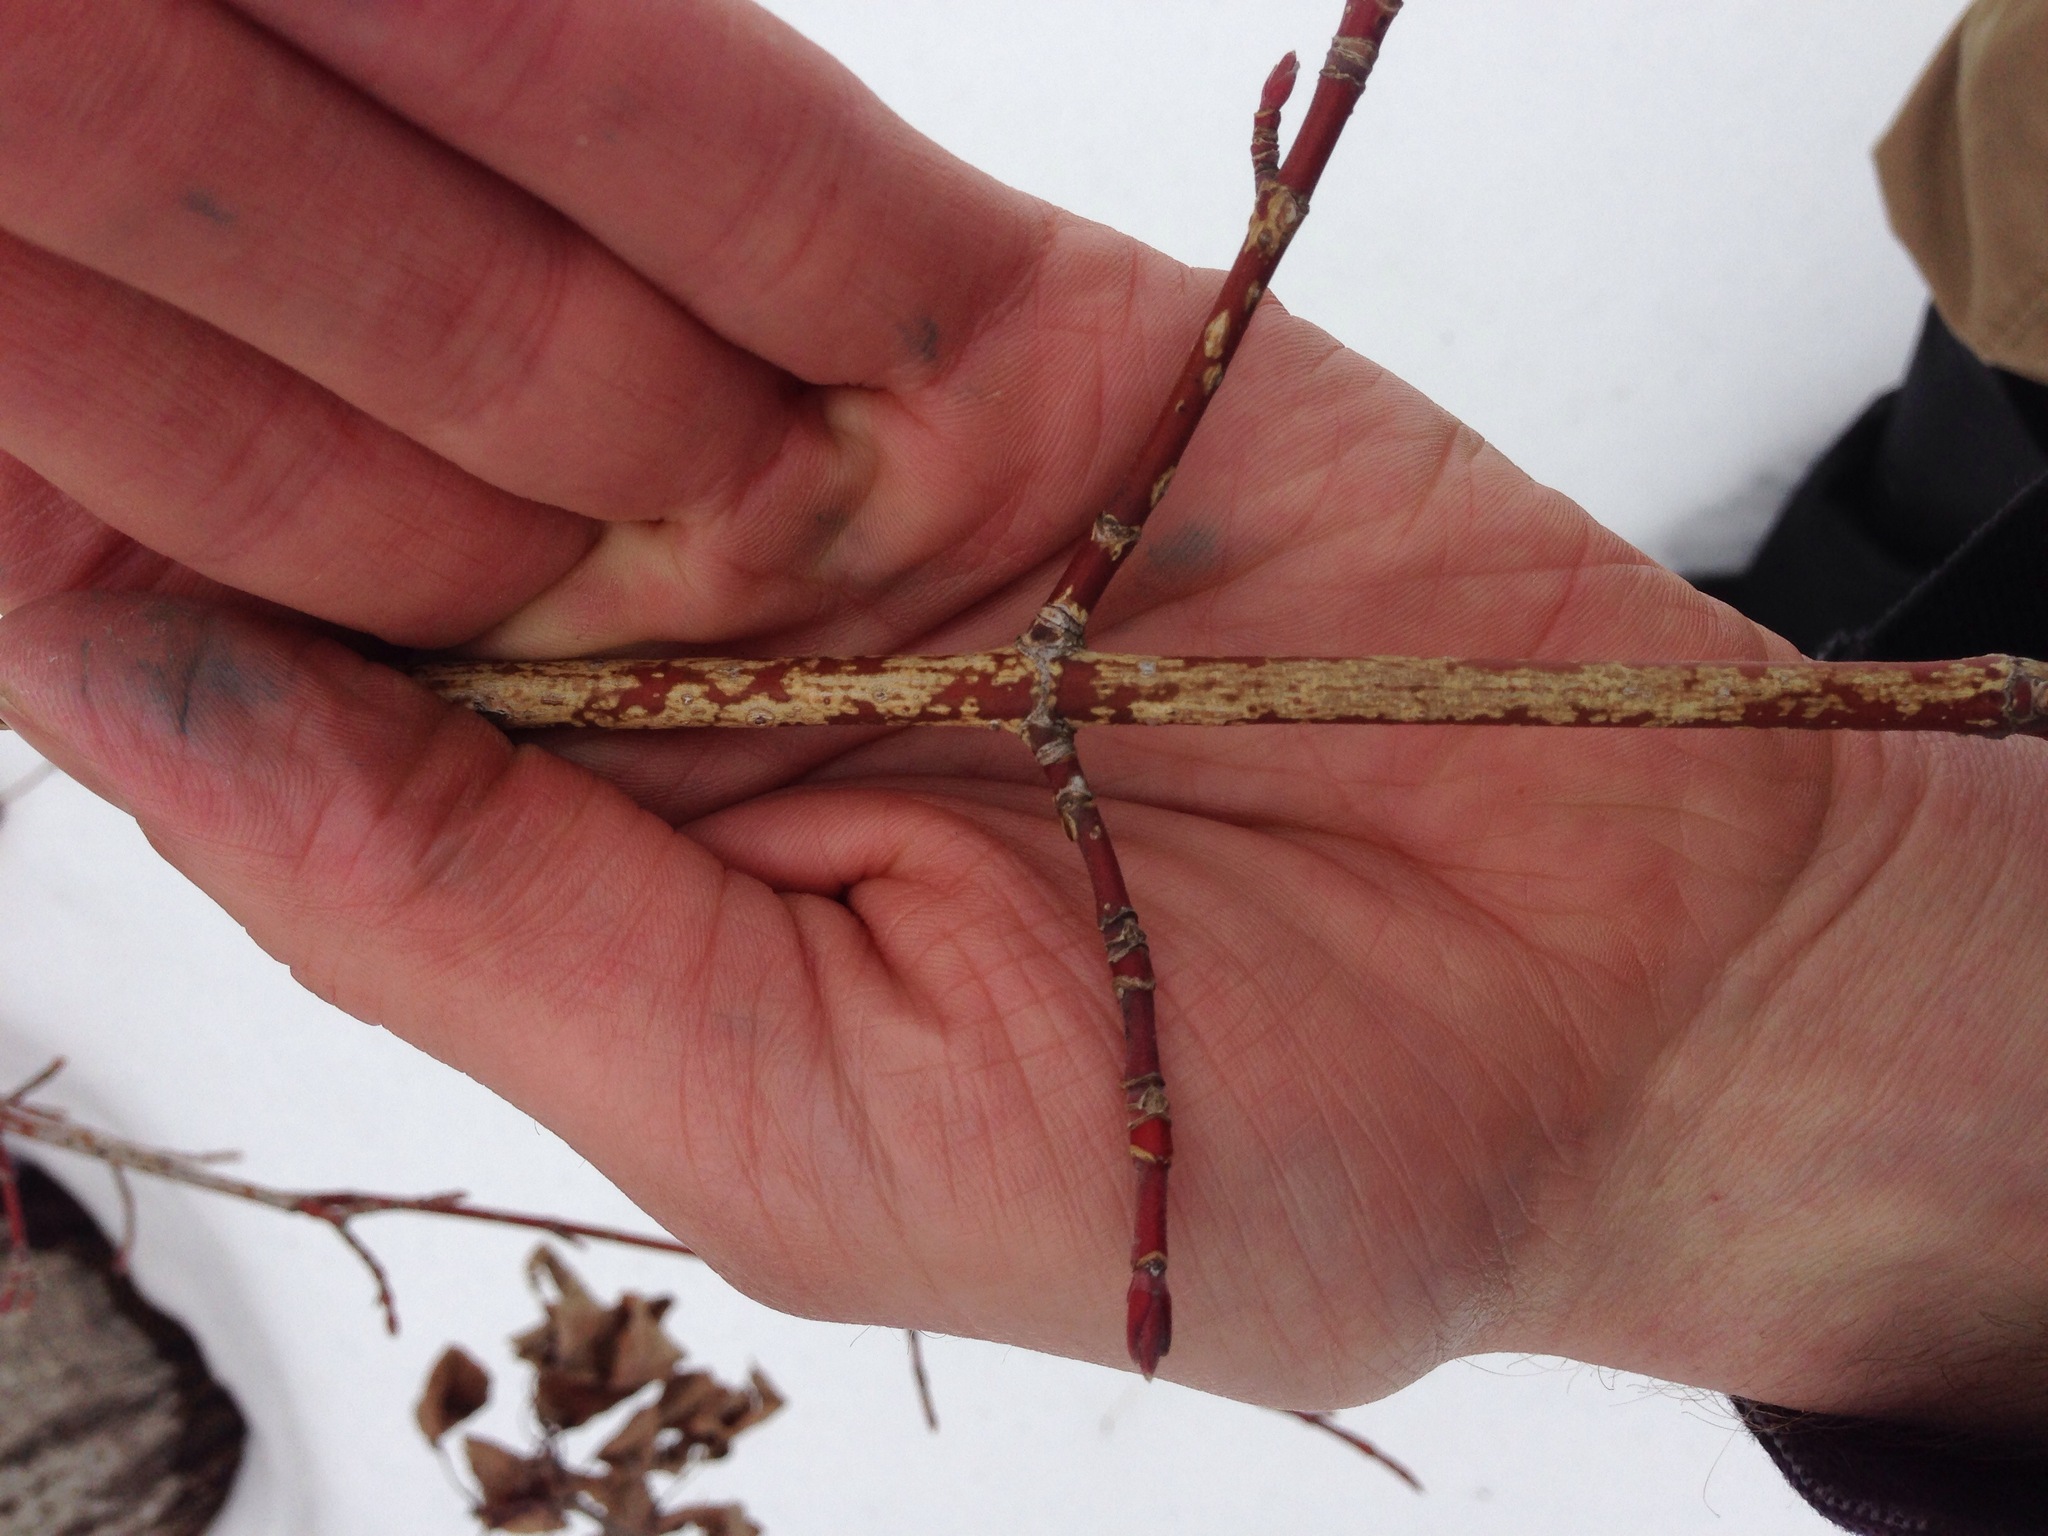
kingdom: Plantae
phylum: Tracheophyta
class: Magnoliopsida
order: Sapindales
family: Sapindaceae
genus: Acer
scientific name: Acer spicatum
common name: Mountain maple
